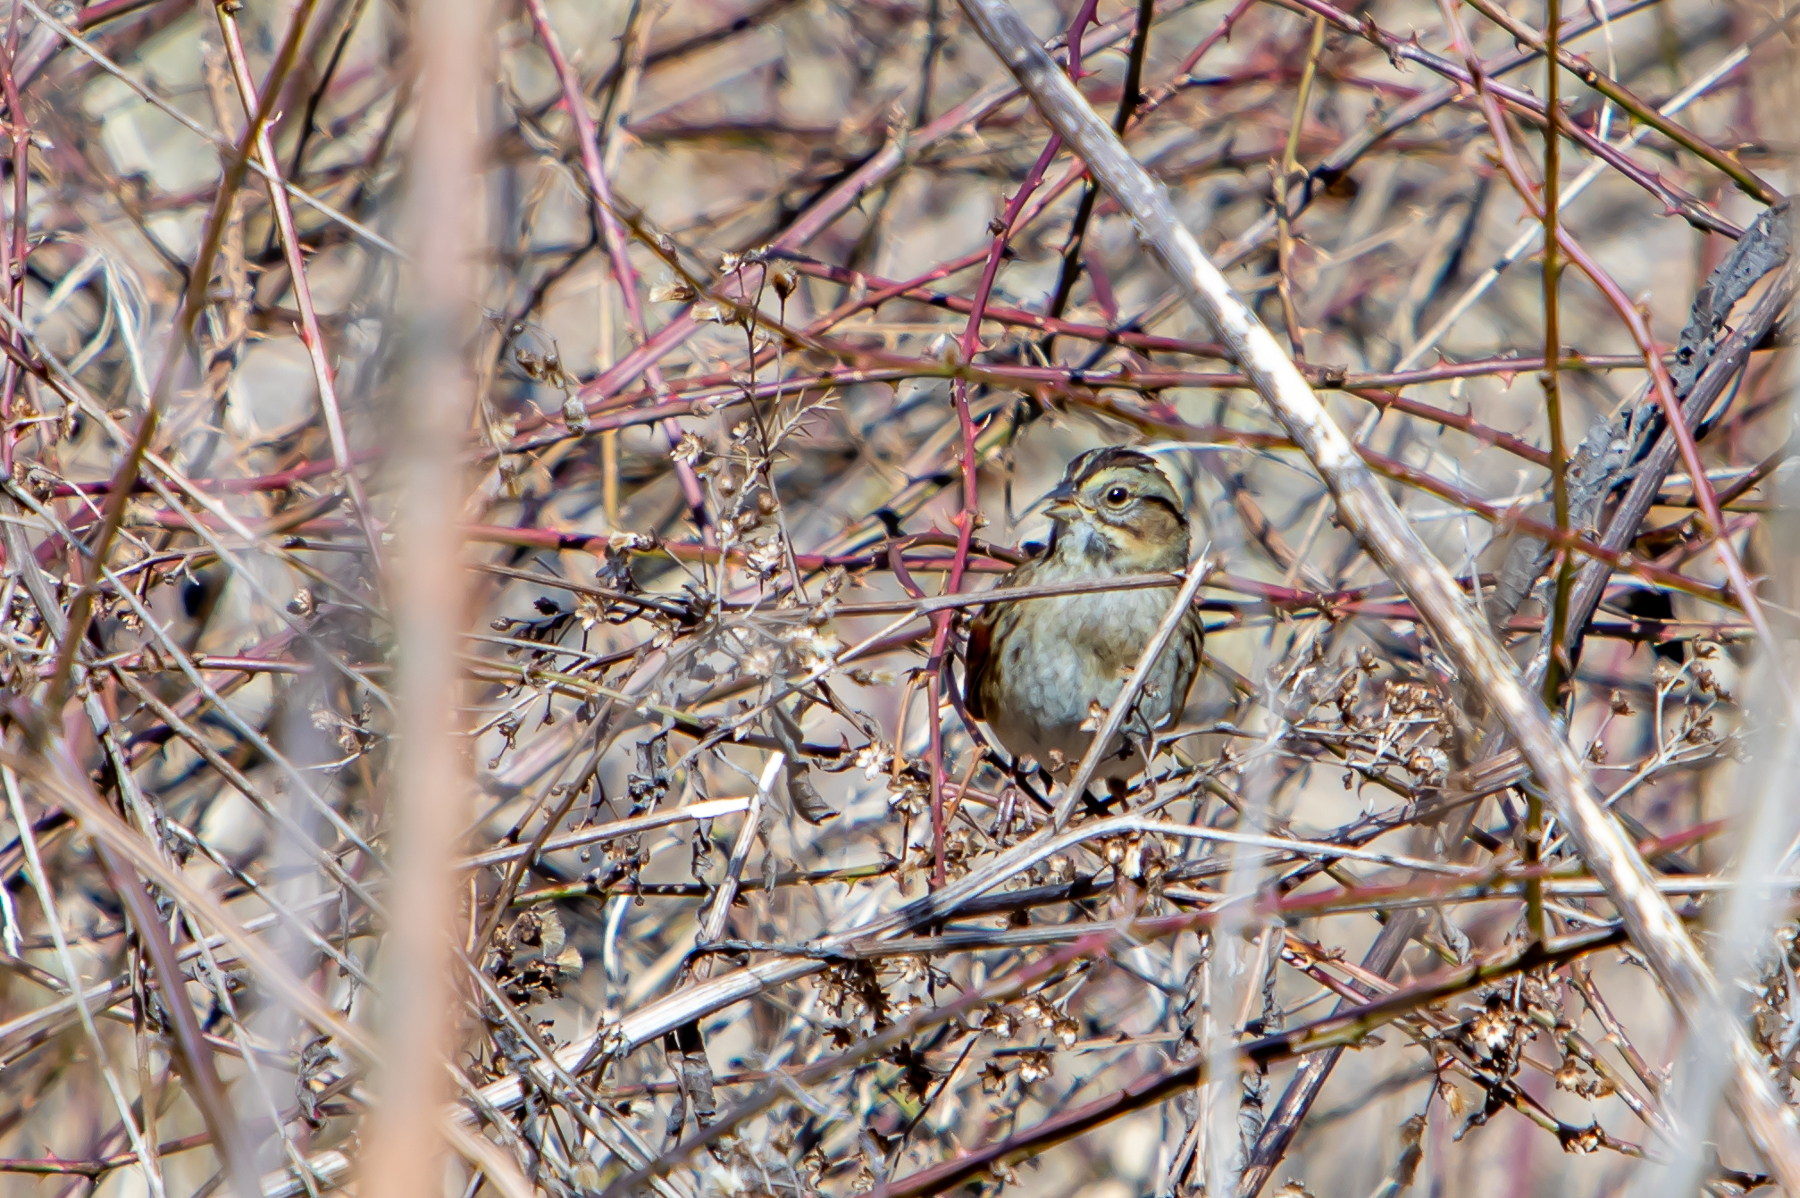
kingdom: Animalia
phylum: Chordata
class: Aves
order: Passeriformes
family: Passerellidae
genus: Melospiza
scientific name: Melospiza georgiana
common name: Swamp sparrow
